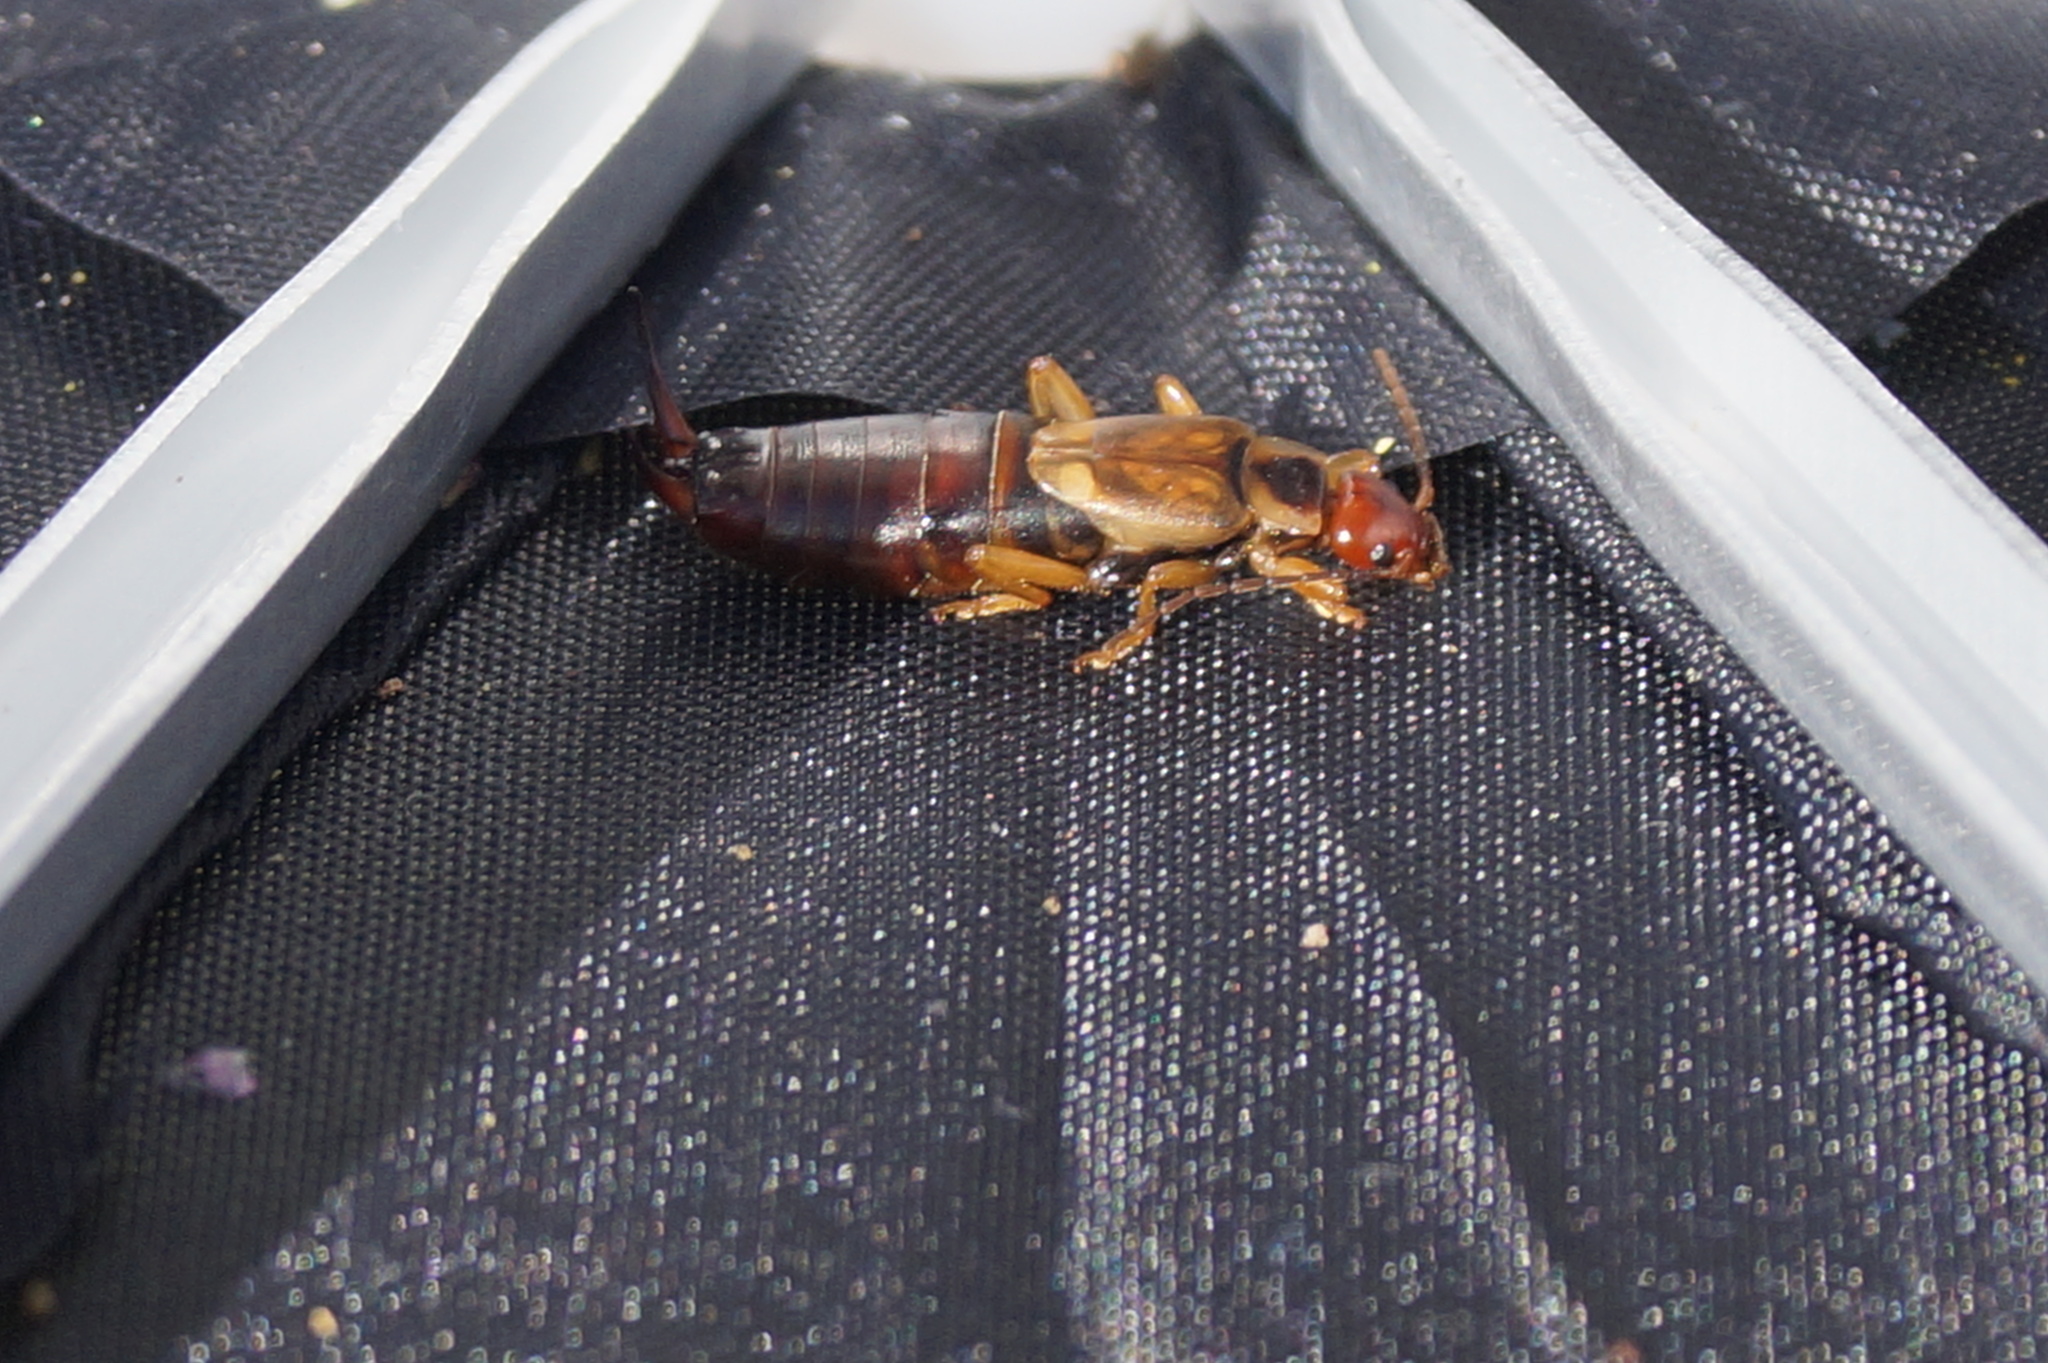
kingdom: Animalia
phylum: Arthropoda
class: Insecta
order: Dermaptera
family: Forficulidae
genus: Forficula
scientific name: Forficula
